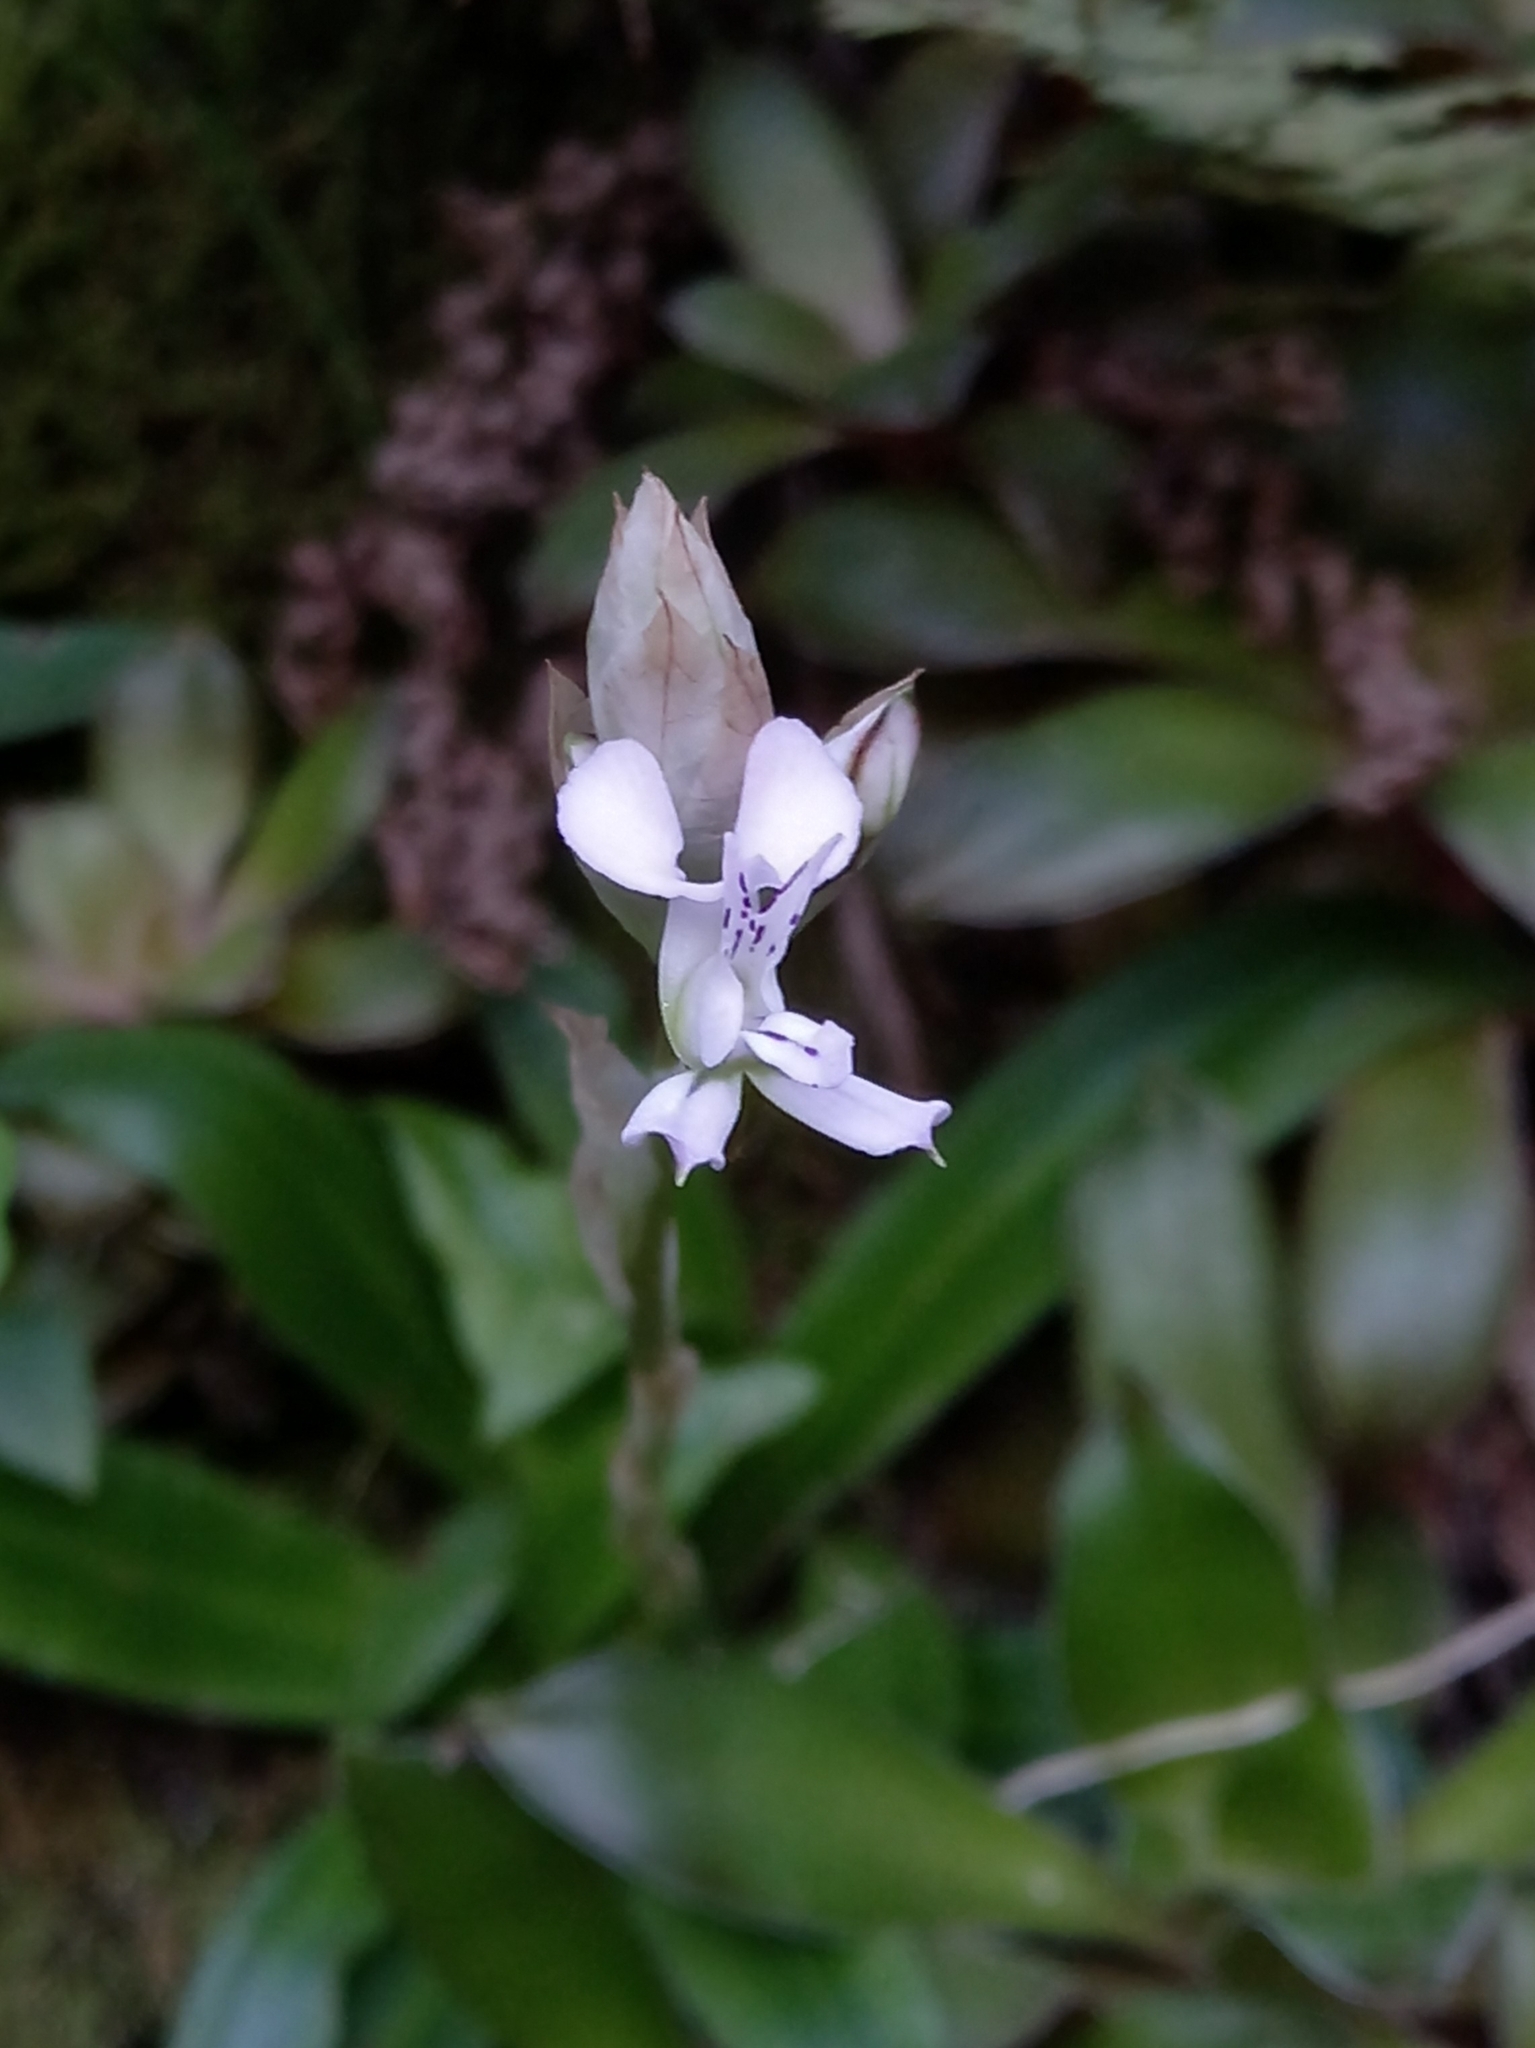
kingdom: Plantae
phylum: Tracheophyta
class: Liliopsida
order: Asparagales
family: Orchidaceae
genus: Disa
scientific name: Disa sagittalis
